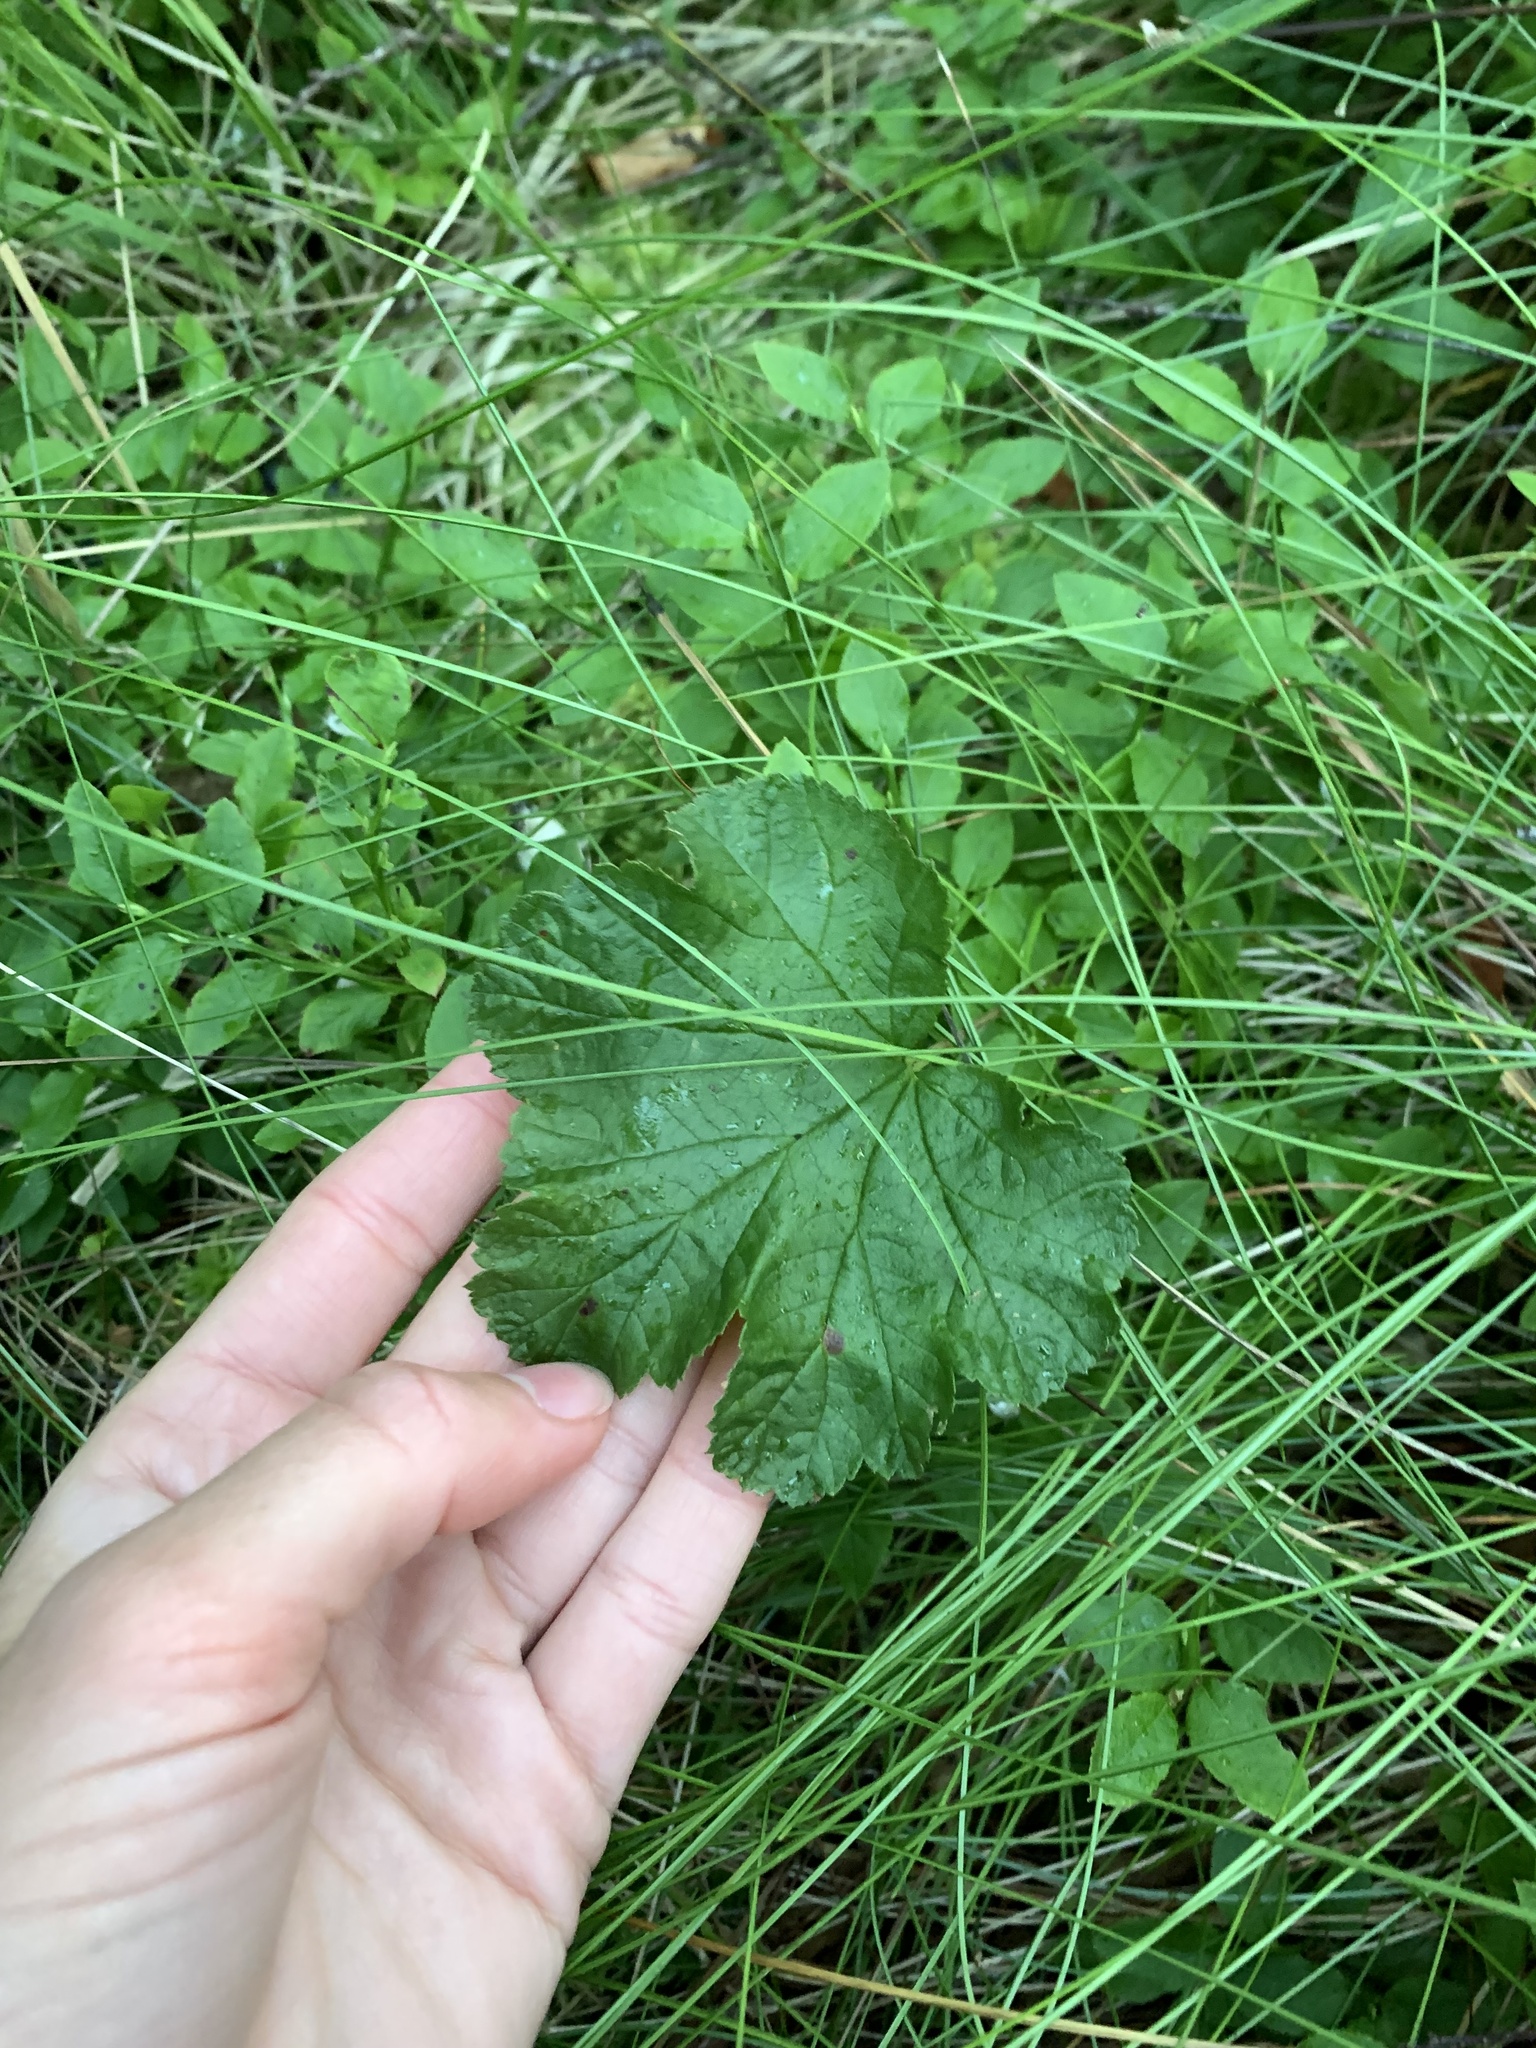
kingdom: Plantae
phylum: Tracheophyta
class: Magnoliopsida
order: Rosales
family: Rosaceae
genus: Rubus
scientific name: Rubus chamaemorus
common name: Cloudberry
